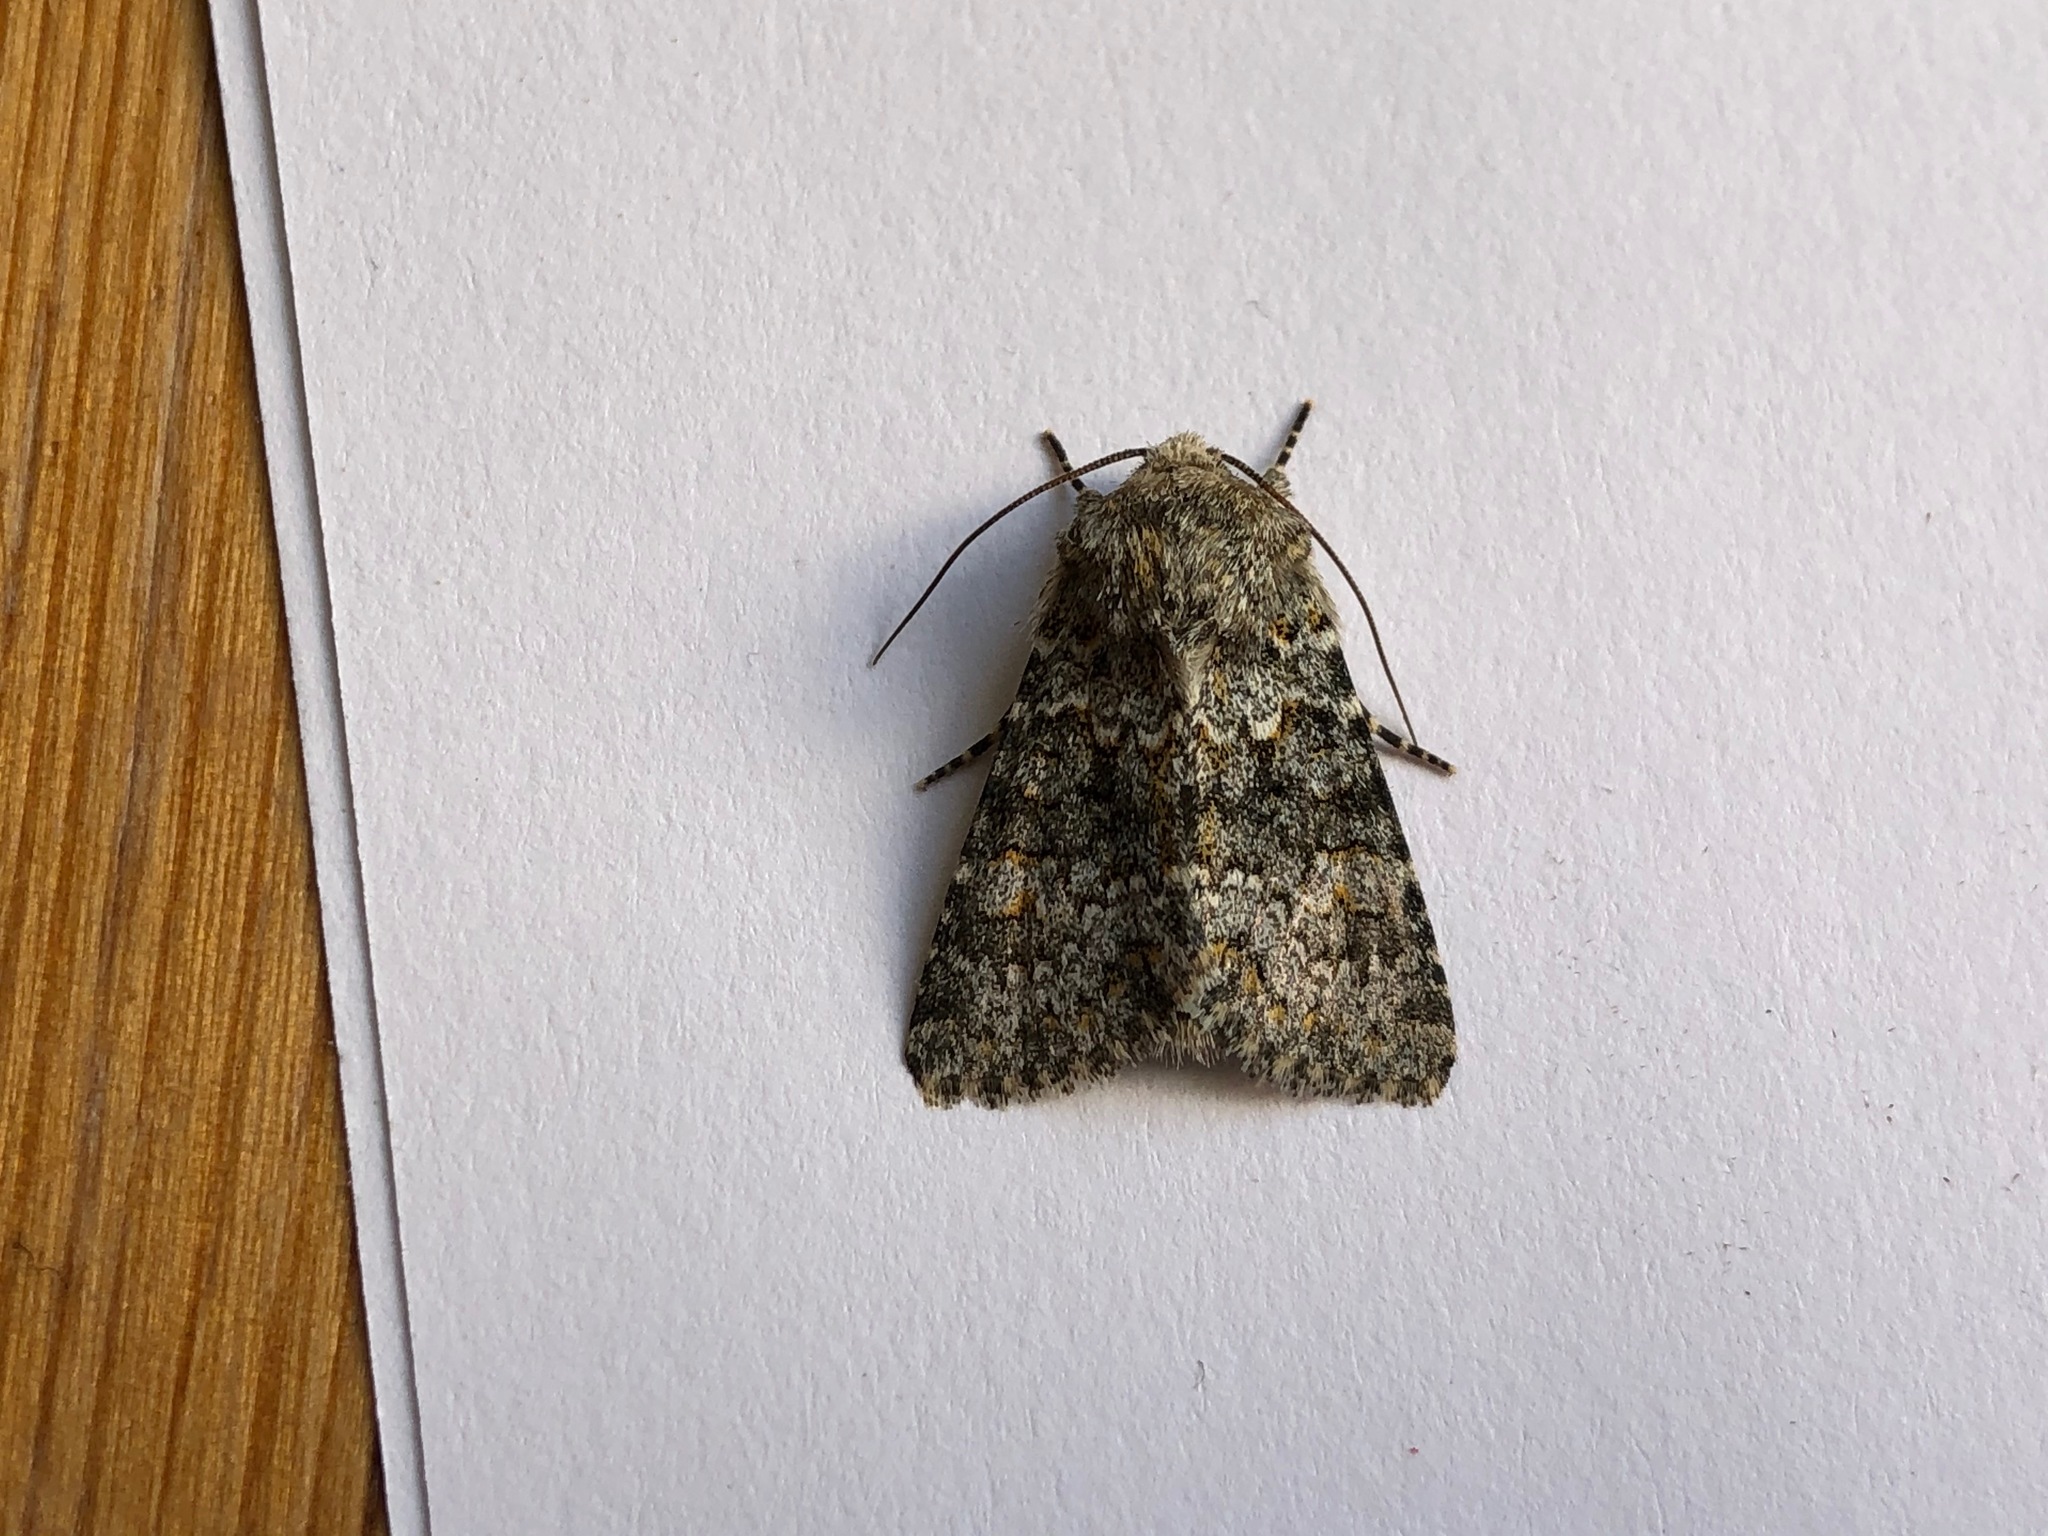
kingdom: Animalia
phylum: Arthropoda
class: Insecta
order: Lepidoptera
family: Noctuidae
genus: Hecatera
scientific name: Hecatera dysodea
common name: Small ranunculus
